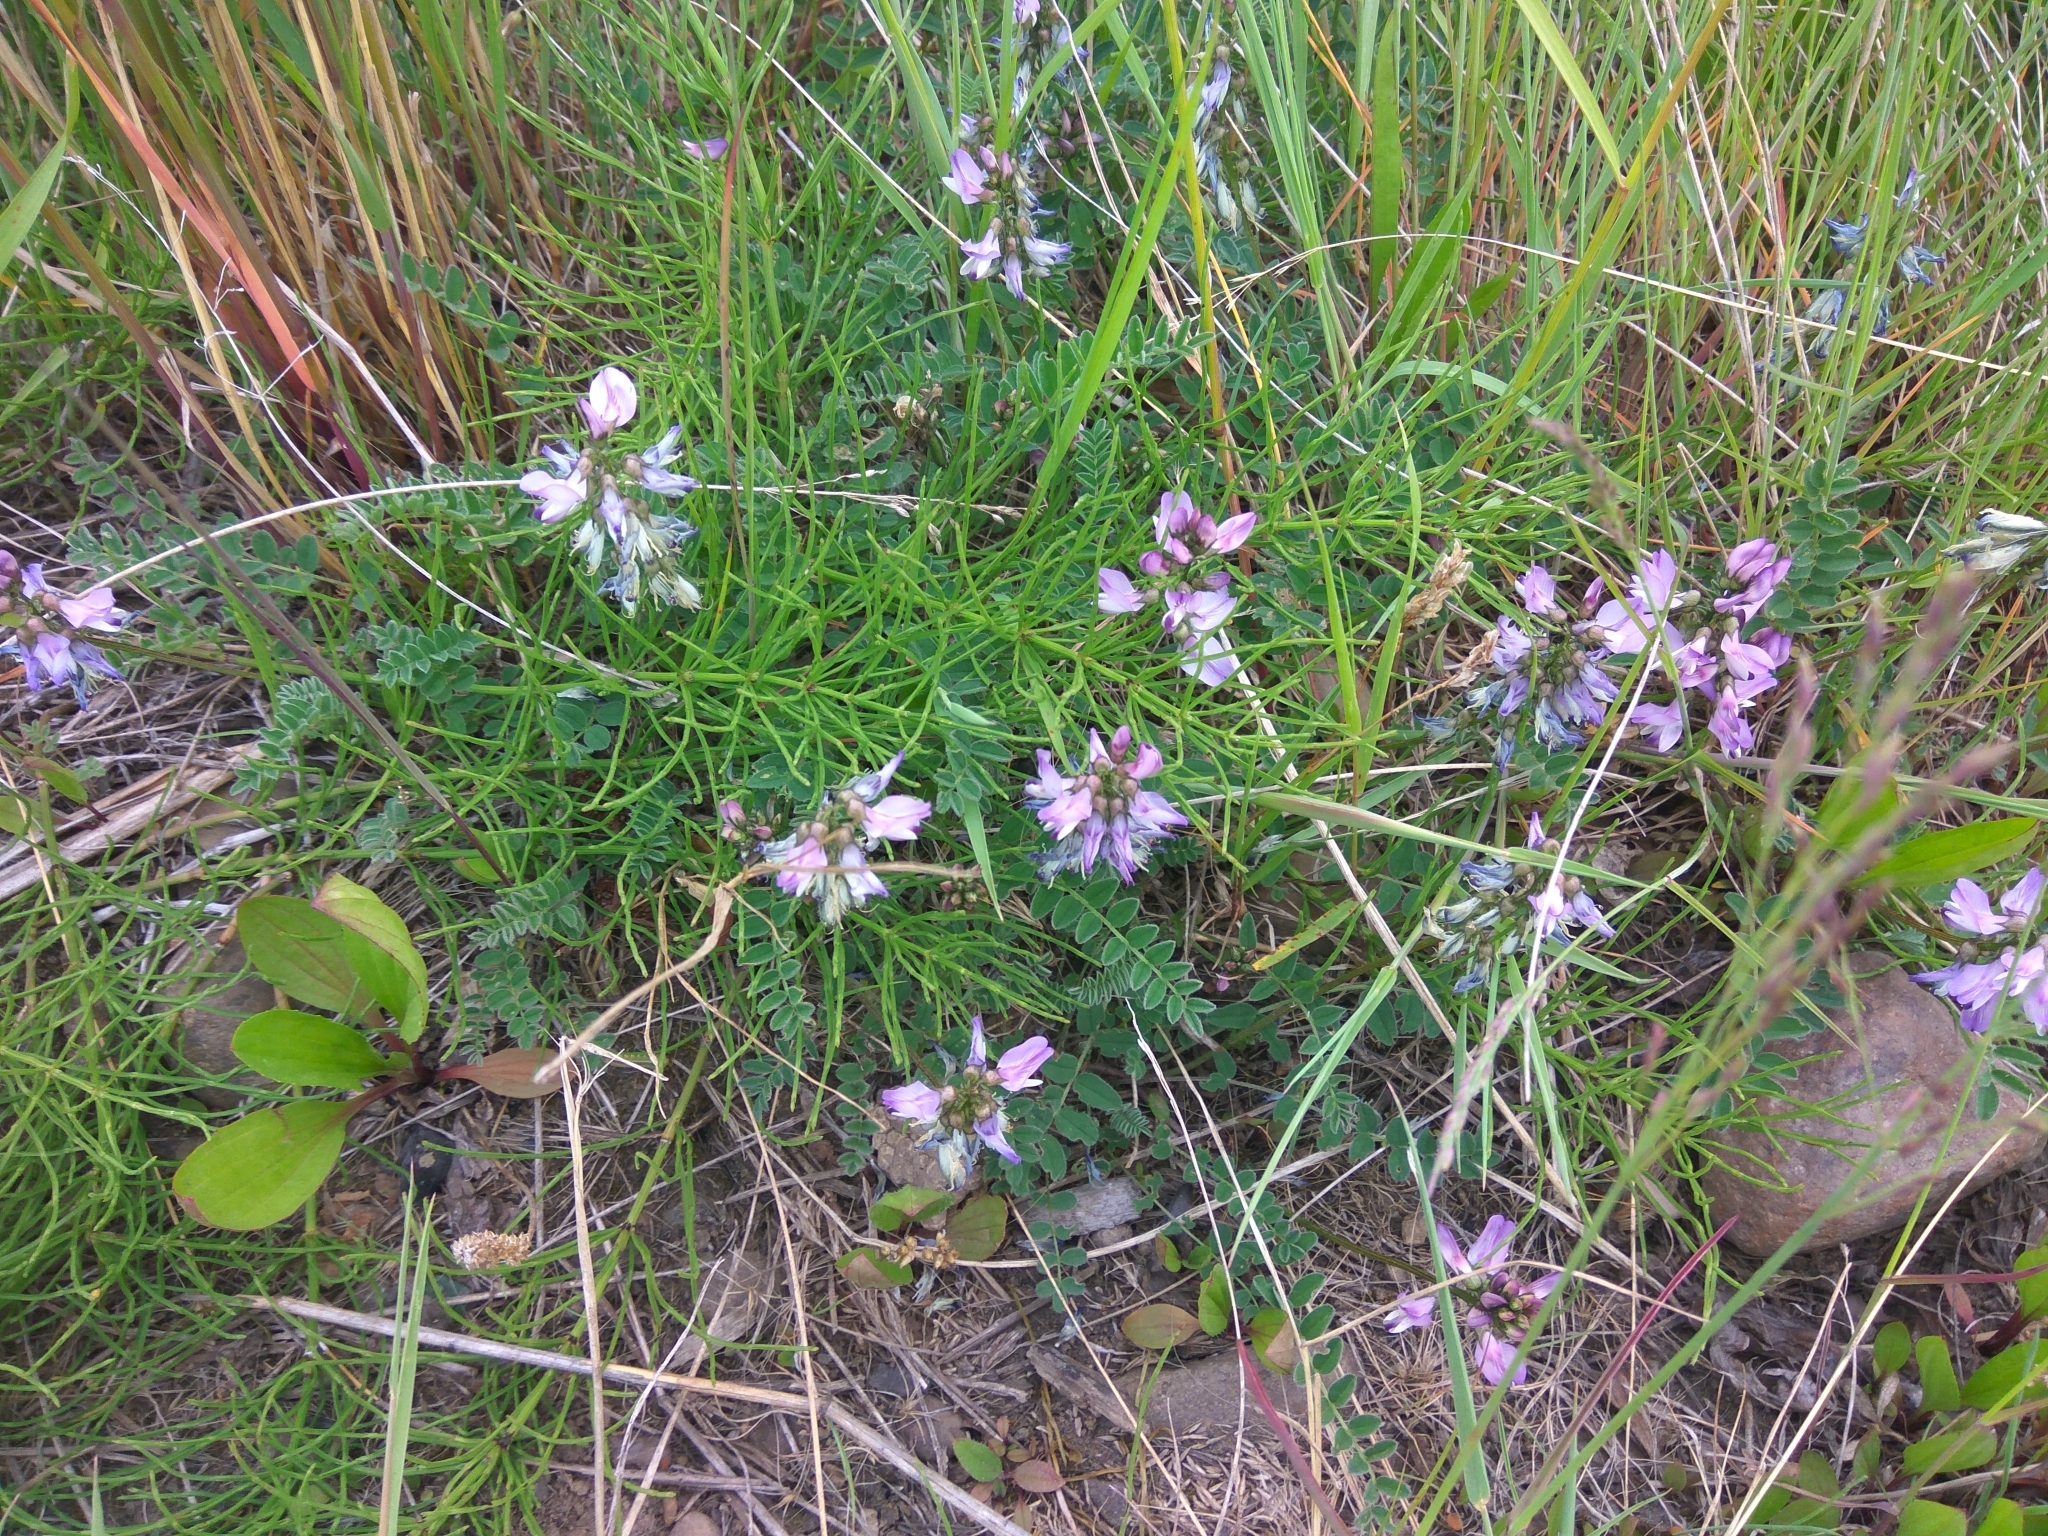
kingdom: Plantae
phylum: Tracheophyta
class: Magnoliopsida
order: Fabales
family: Fabaceae
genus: Astragalus
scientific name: Astragalus alpinus
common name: Alpine milk-vetch
